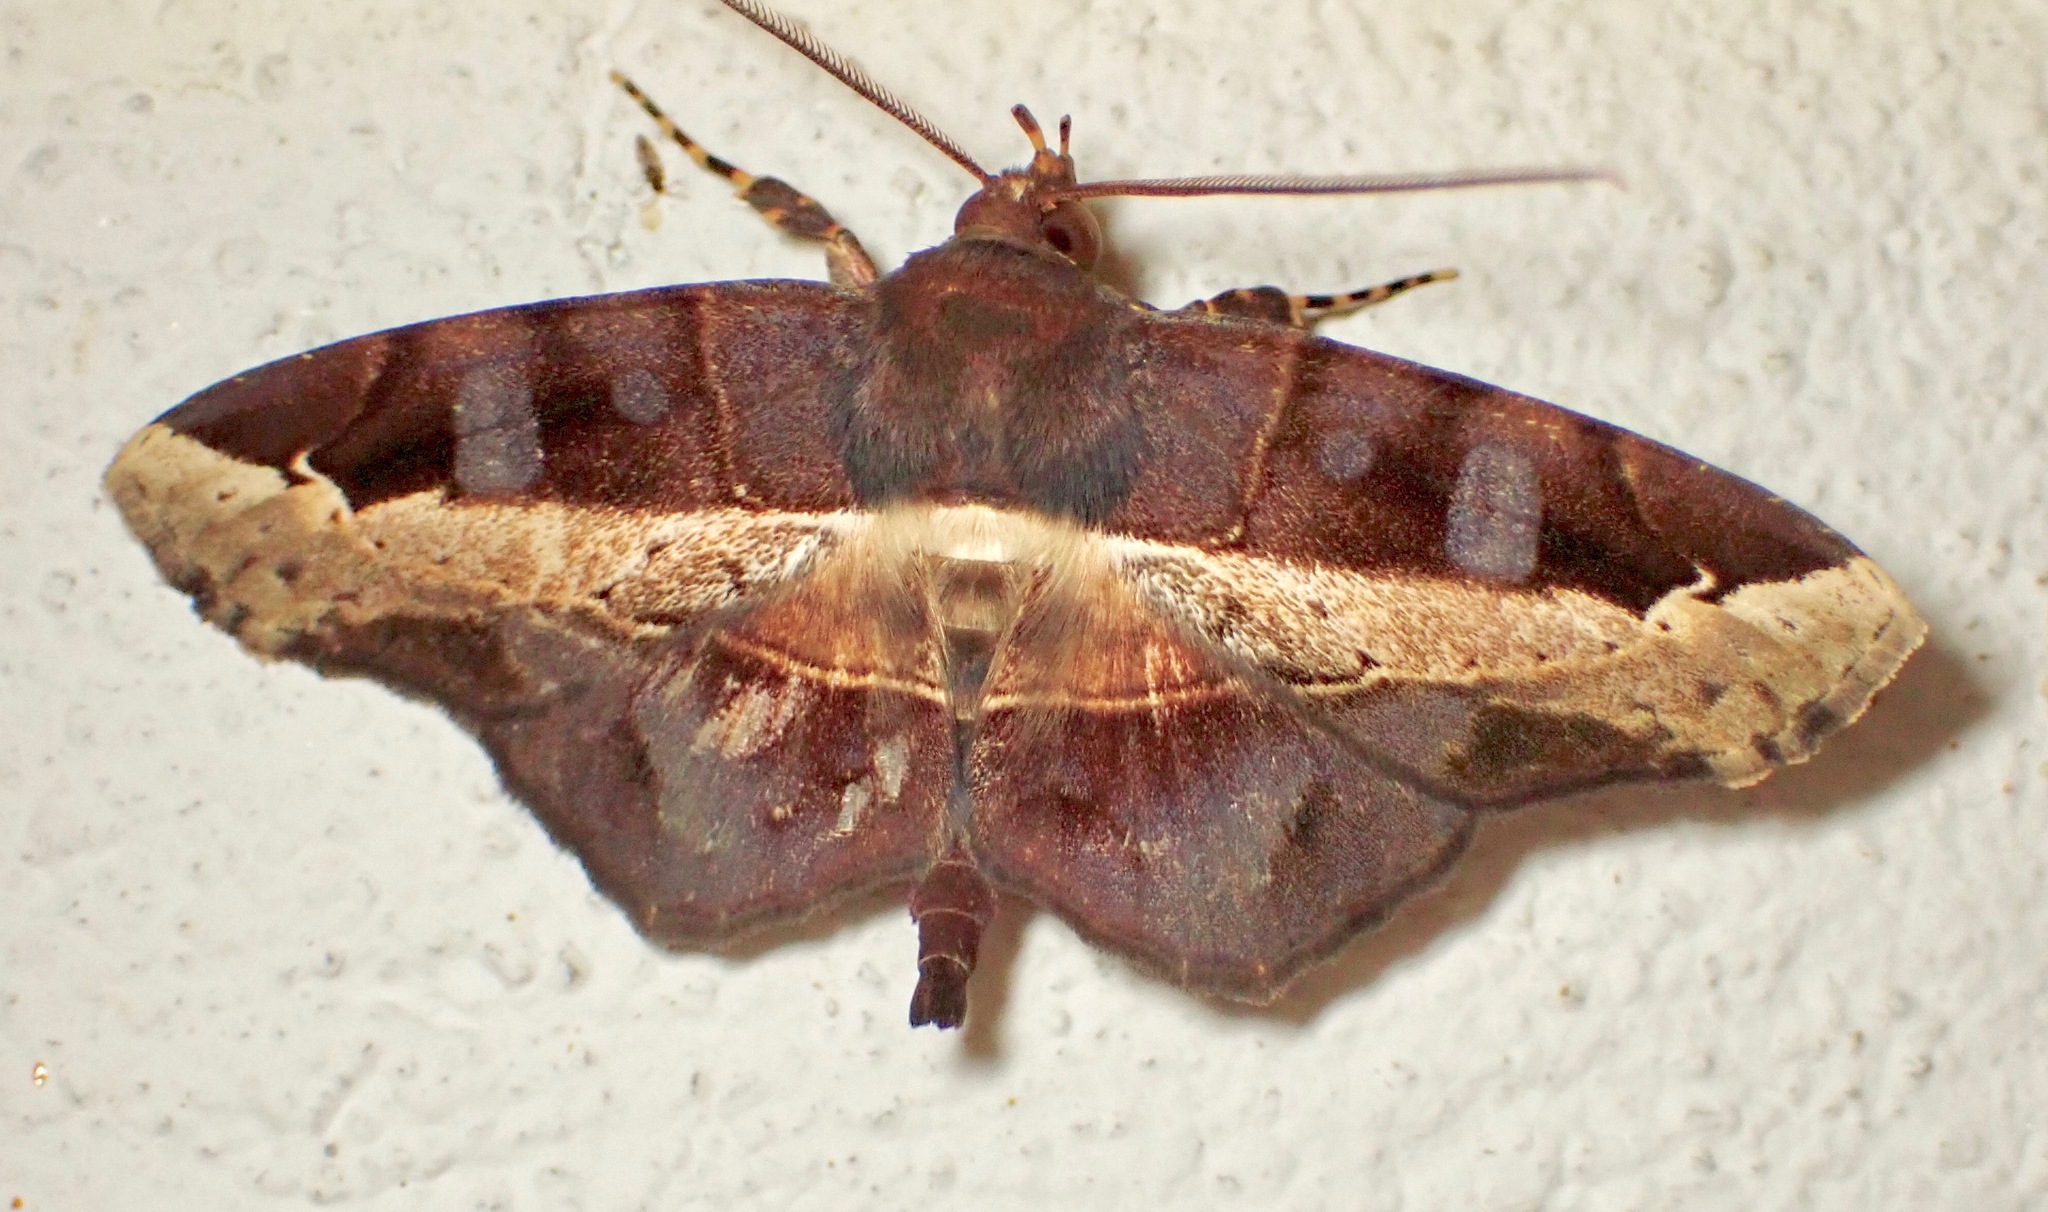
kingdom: Animalia
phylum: Arthropoda
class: Insecta
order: Lepidoptera
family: Erebidae
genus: Vogia
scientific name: Vogia mimica
